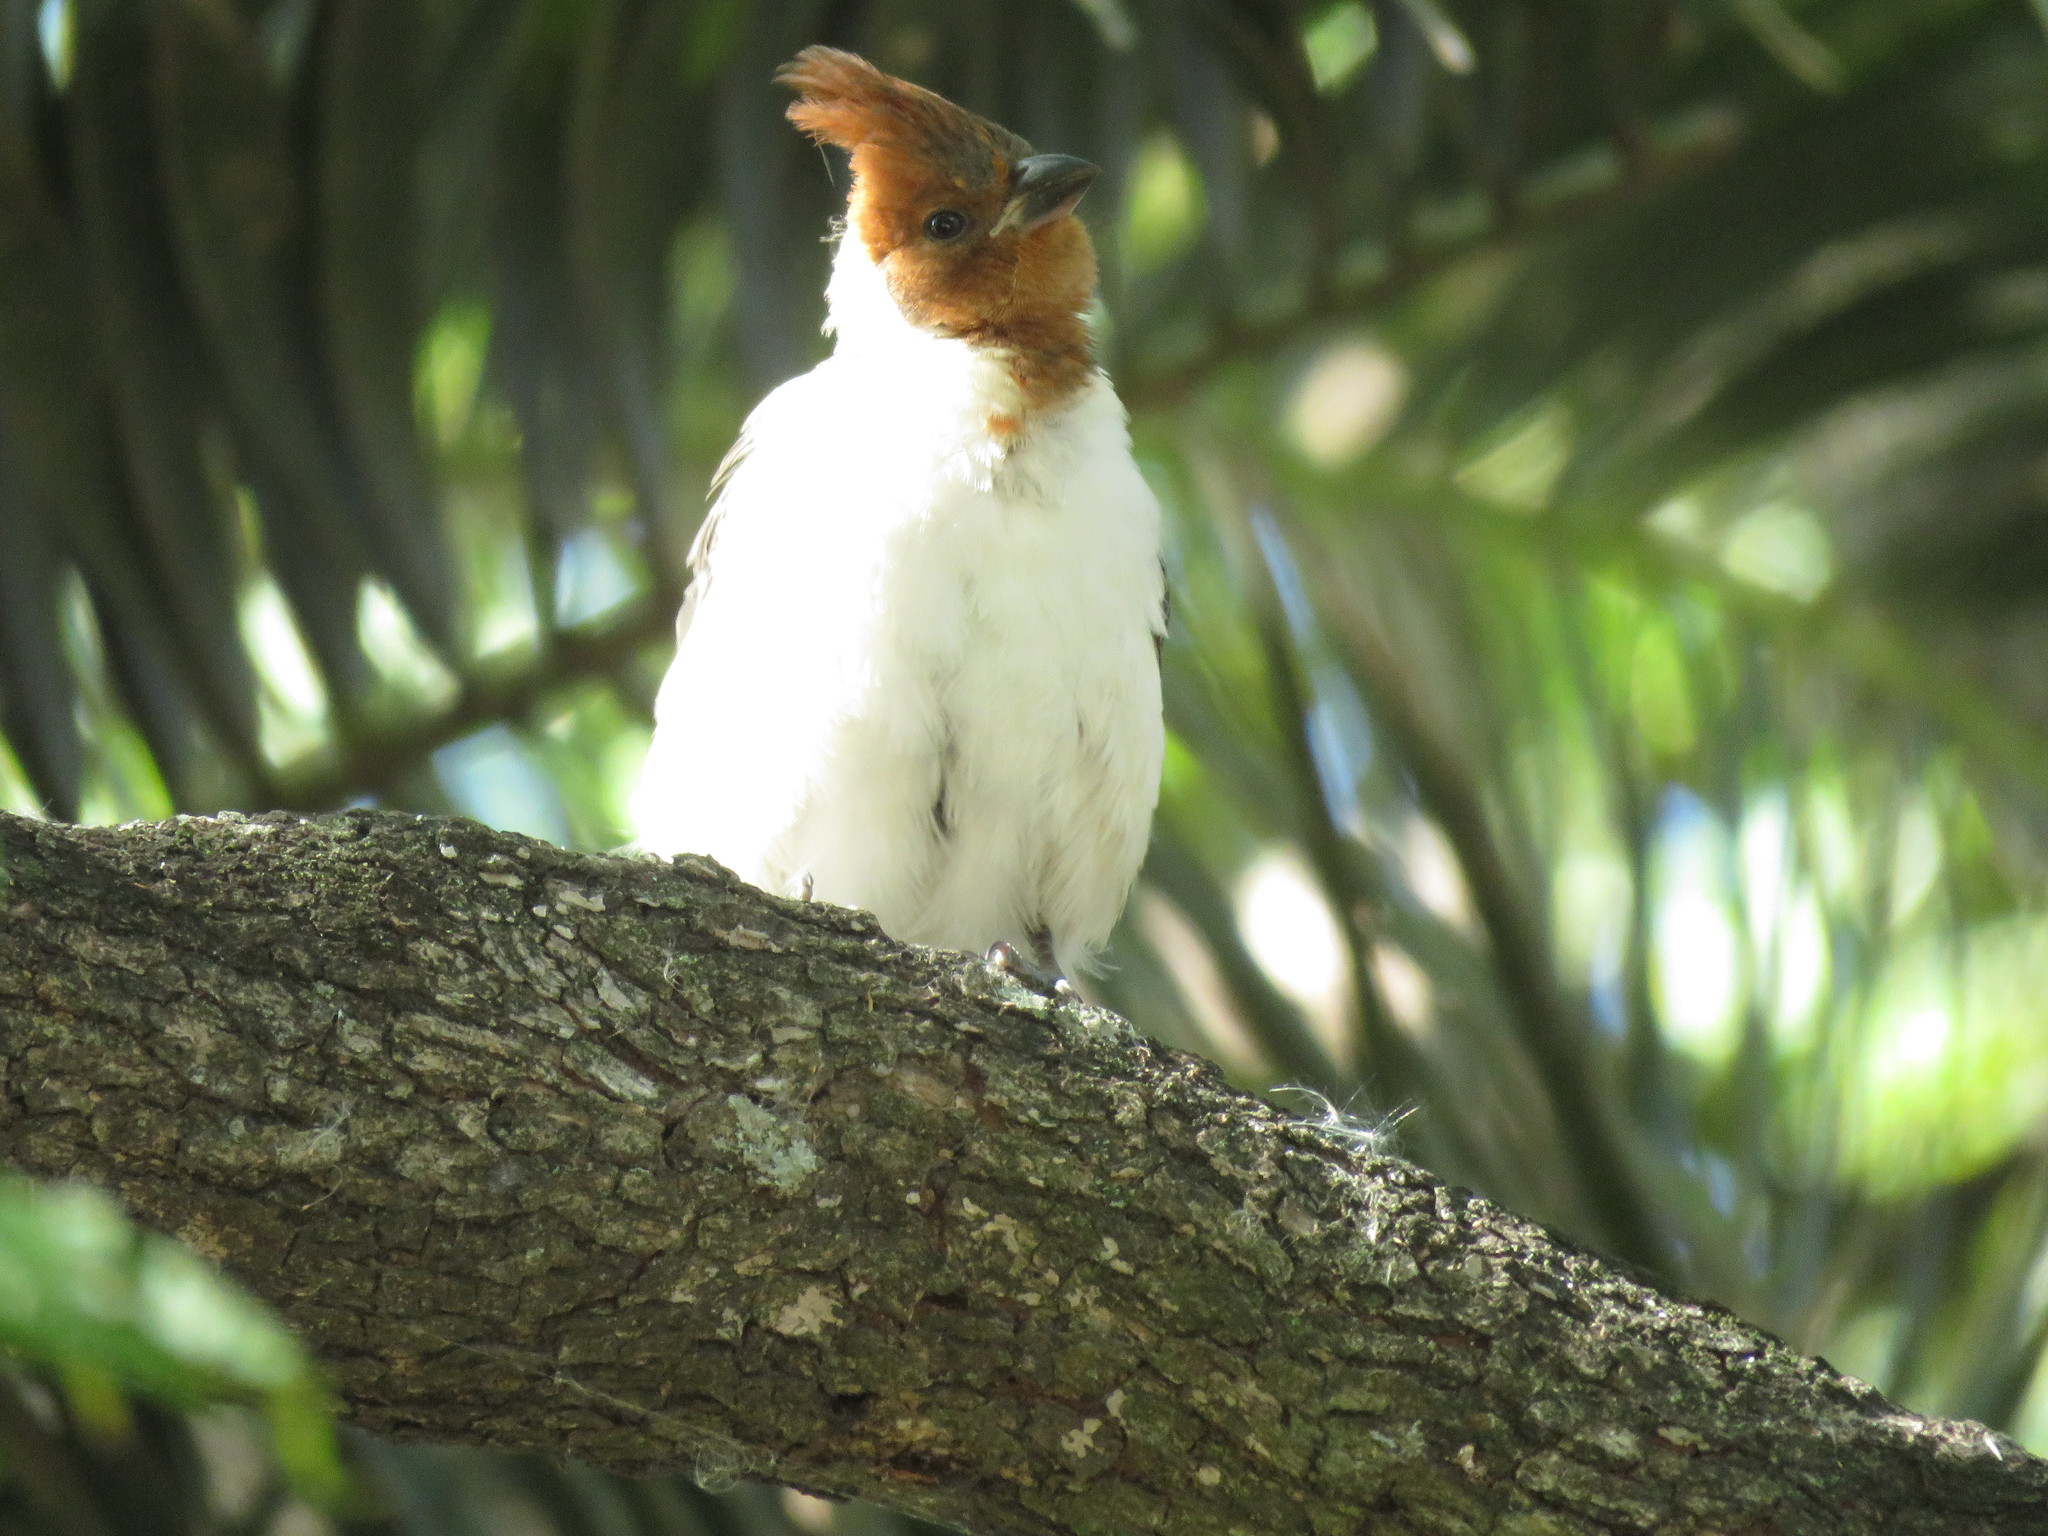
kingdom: Animalia
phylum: Chordata
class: Aves
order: Passeriformes
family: Thraupidae
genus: Paroaria
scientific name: Paroaria coronata
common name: Red-crested cardinal
